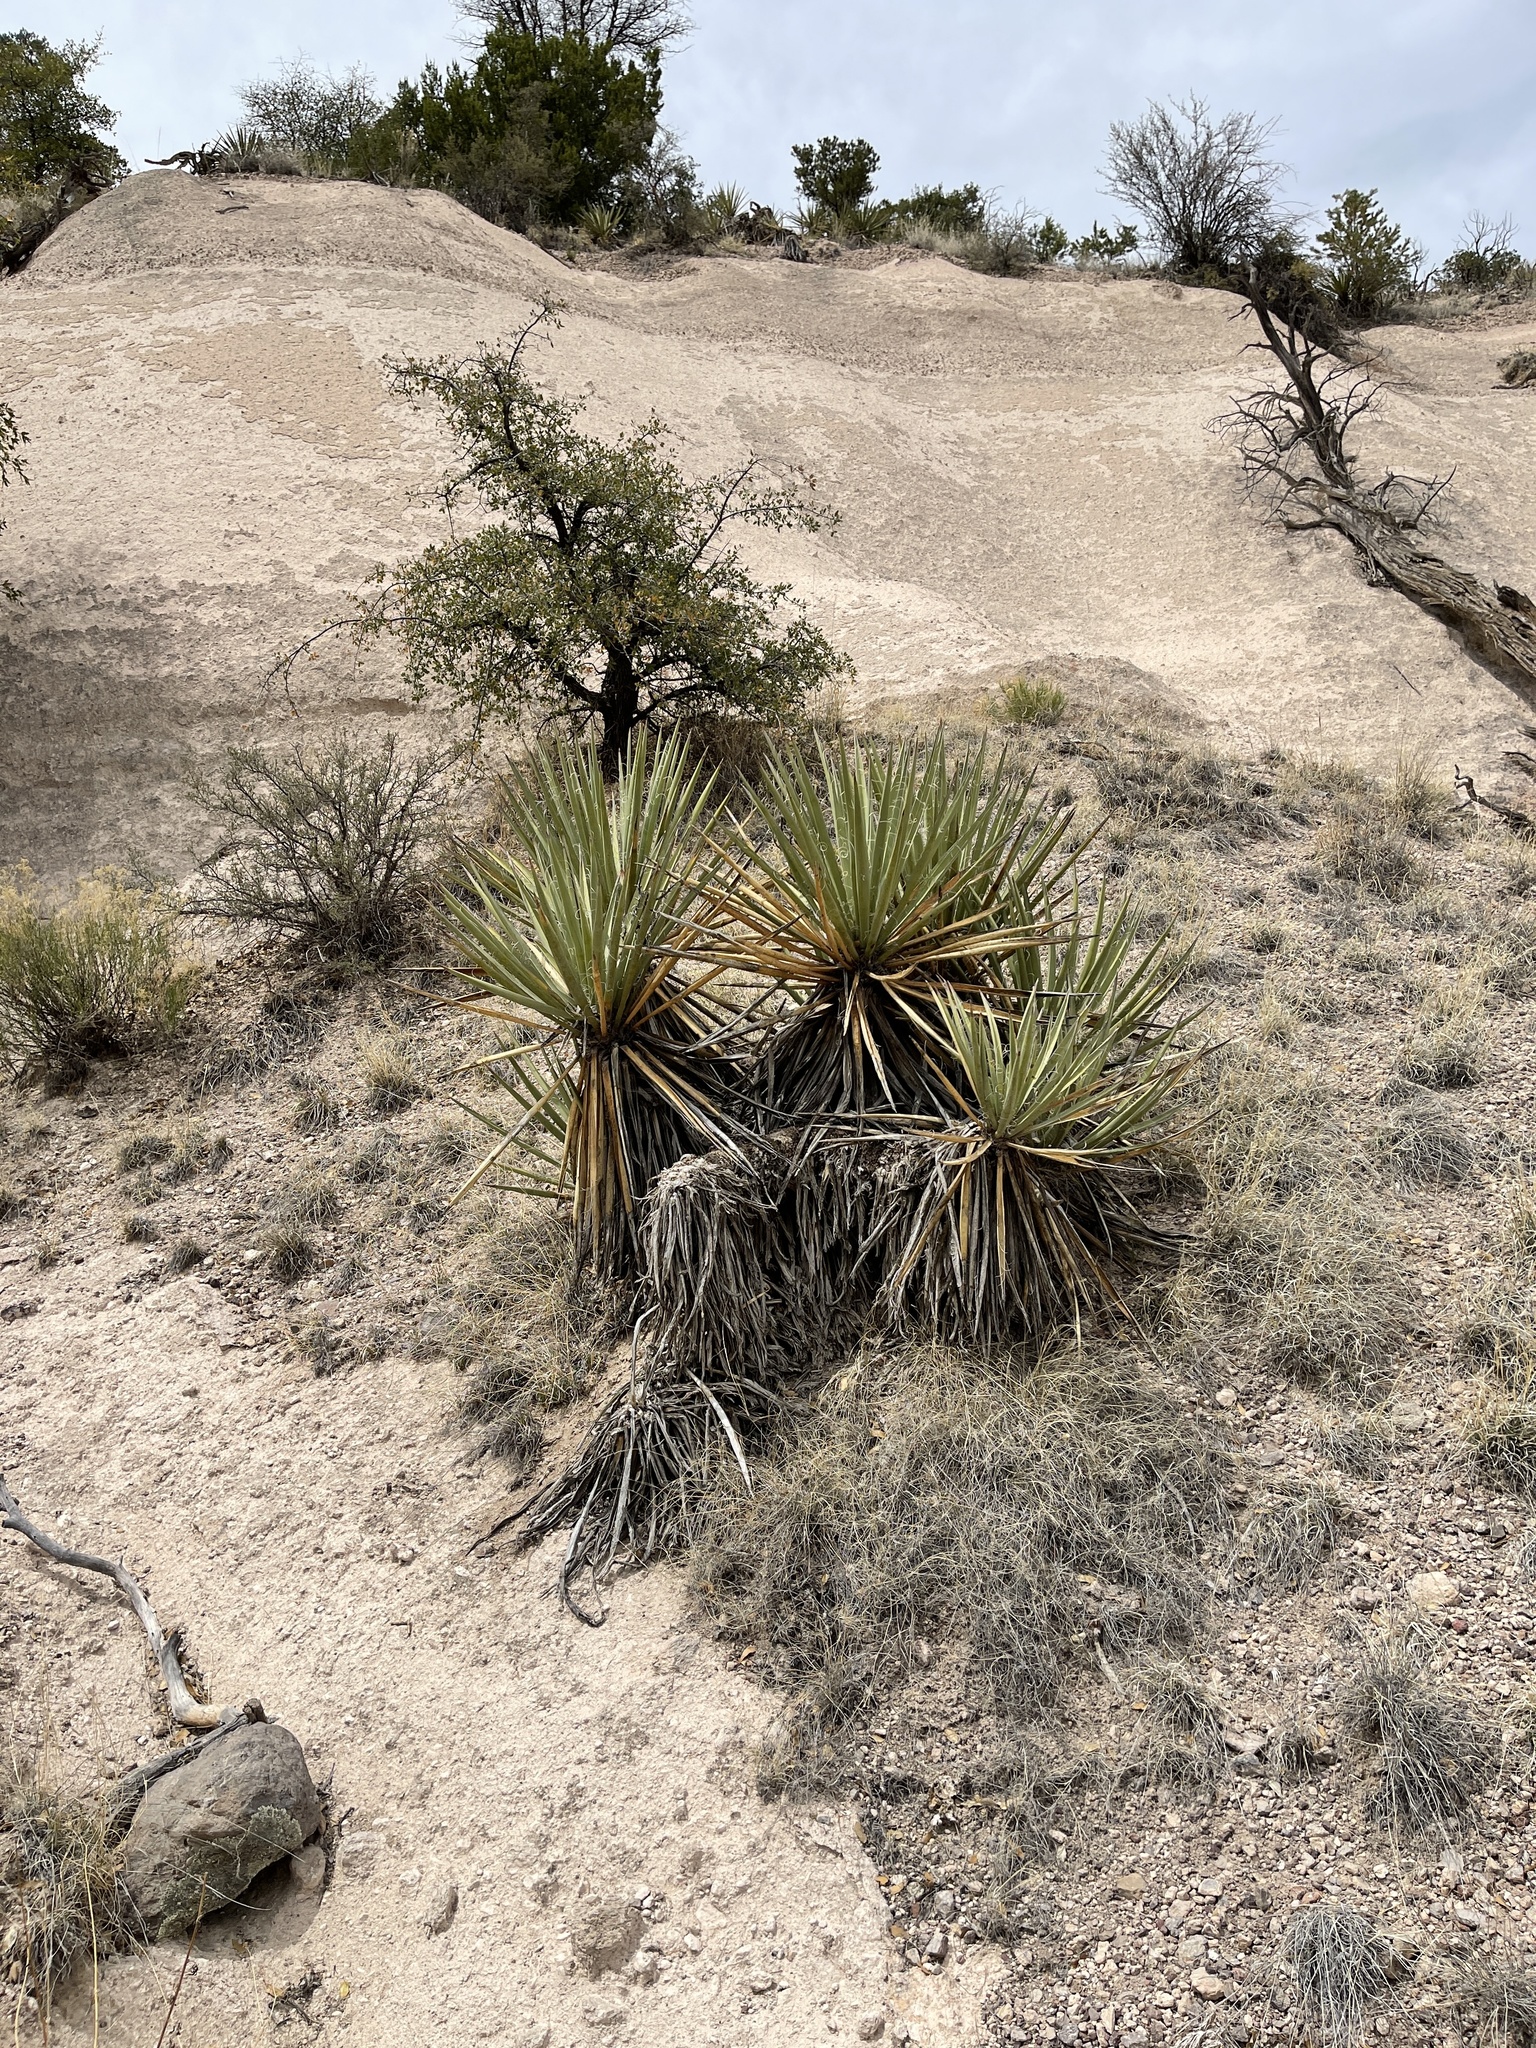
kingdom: Plantae
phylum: Tracheophyta
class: Liliopsida
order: Asparagales
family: Asparagaceae
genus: Yucca
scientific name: Yucca baccata
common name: Banana yucca
